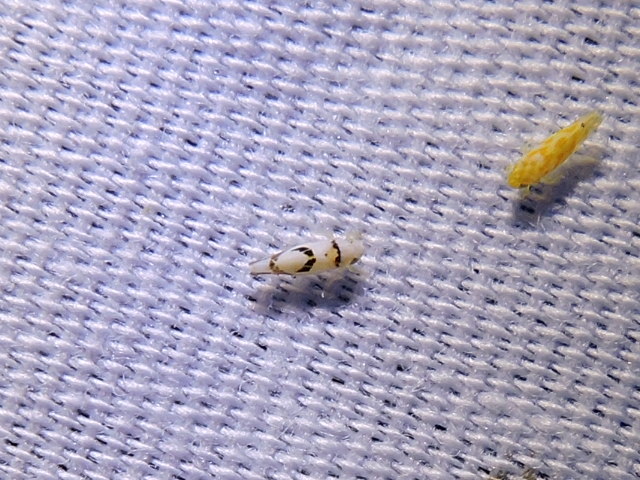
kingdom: Animalia
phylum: Arthropoda
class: Insecta
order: Hemiptera
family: Cicadellidae
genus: Eratoneura
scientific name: Eratoneura lunata
